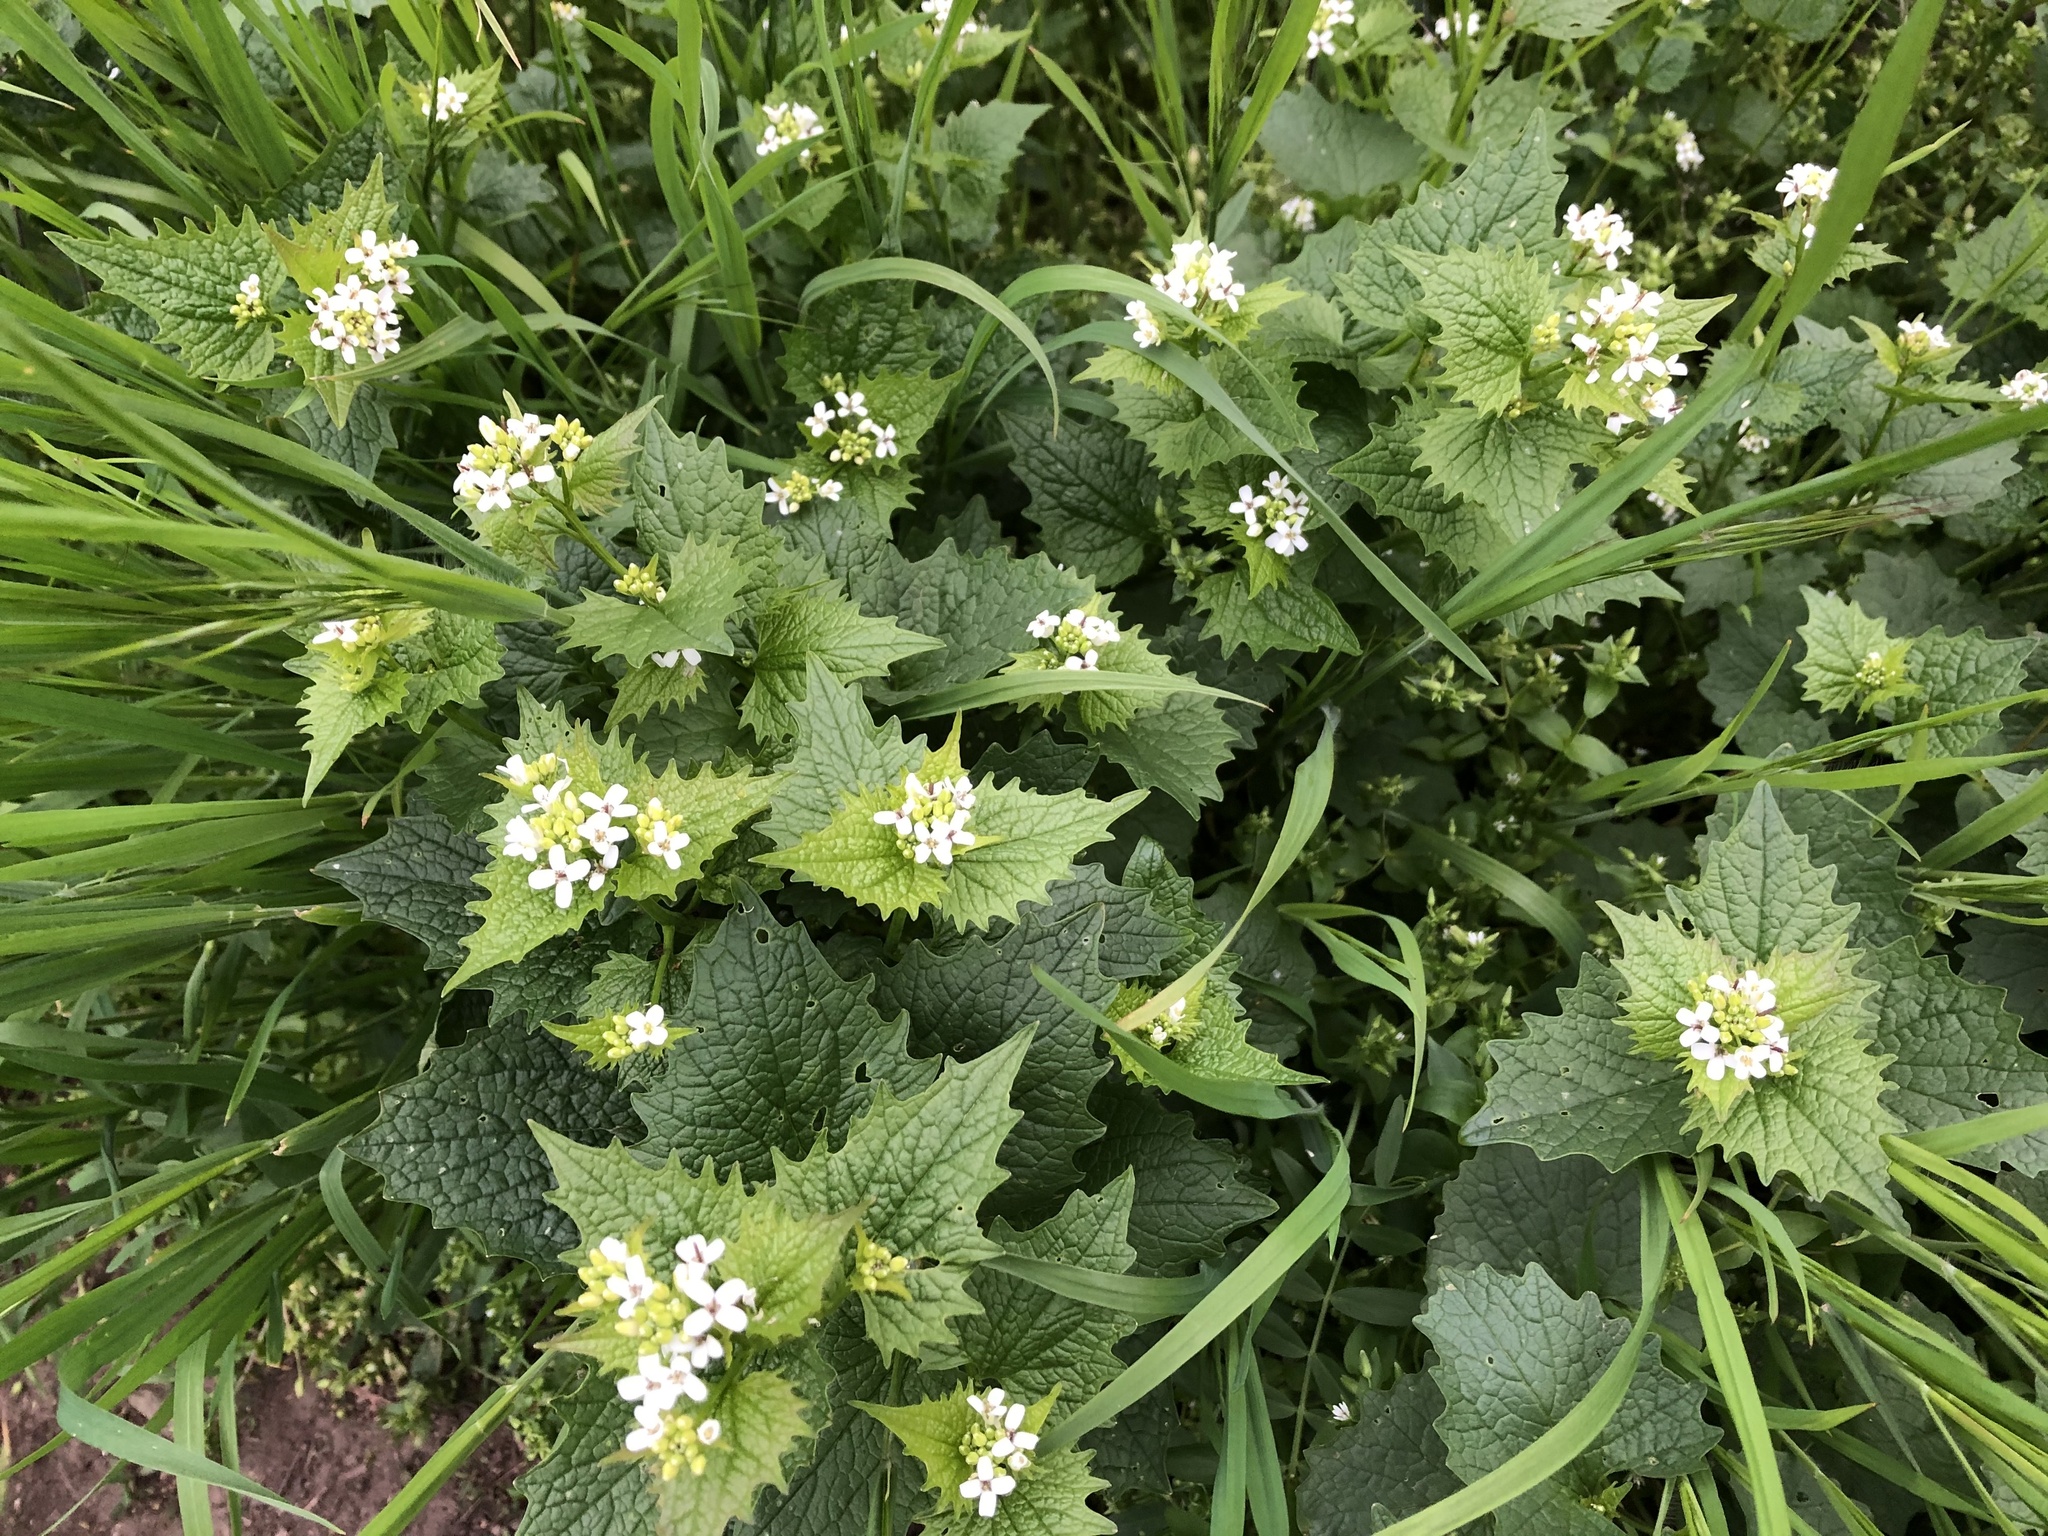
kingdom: Plantae
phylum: Tracheophyta
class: Magnoliopsida
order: Brassicales
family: Brassicaceae
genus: Alliaria
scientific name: Alliaria petiolata
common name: Garlic mustard
